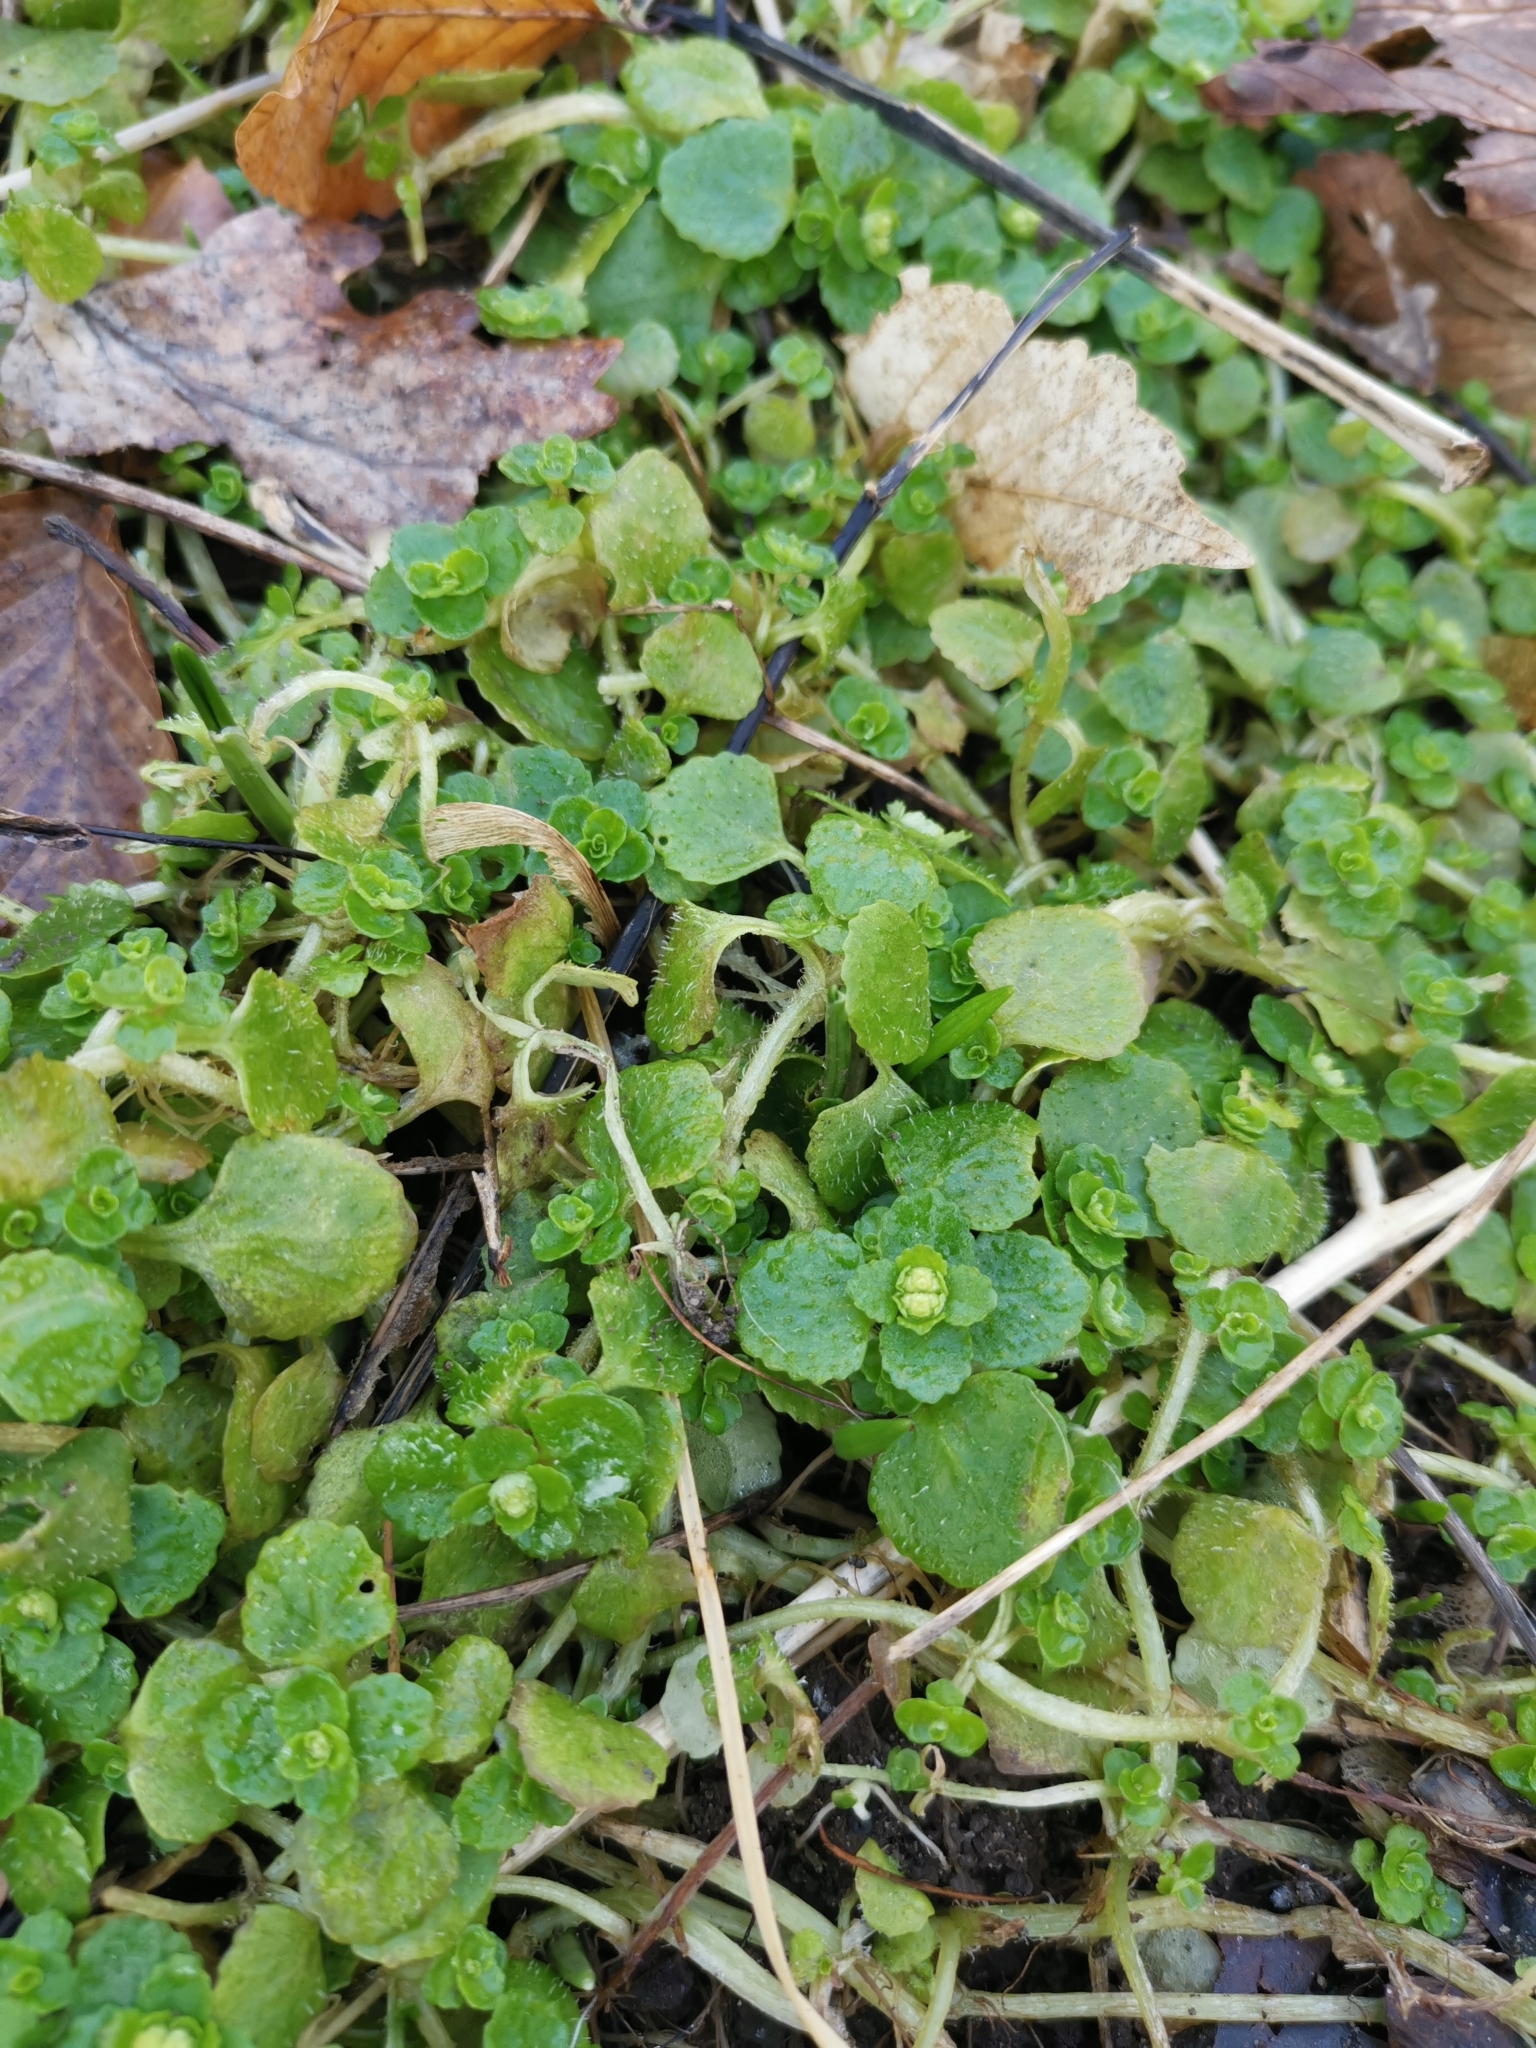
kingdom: Plantae
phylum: Tracheophyta
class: Magnoliopsida
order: Saxifragales
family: Saxifragaceae
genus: Chrysosplenium
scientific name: Chrysosplenium oppositifolium
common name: Opposite-leaved golden-saxifrage
